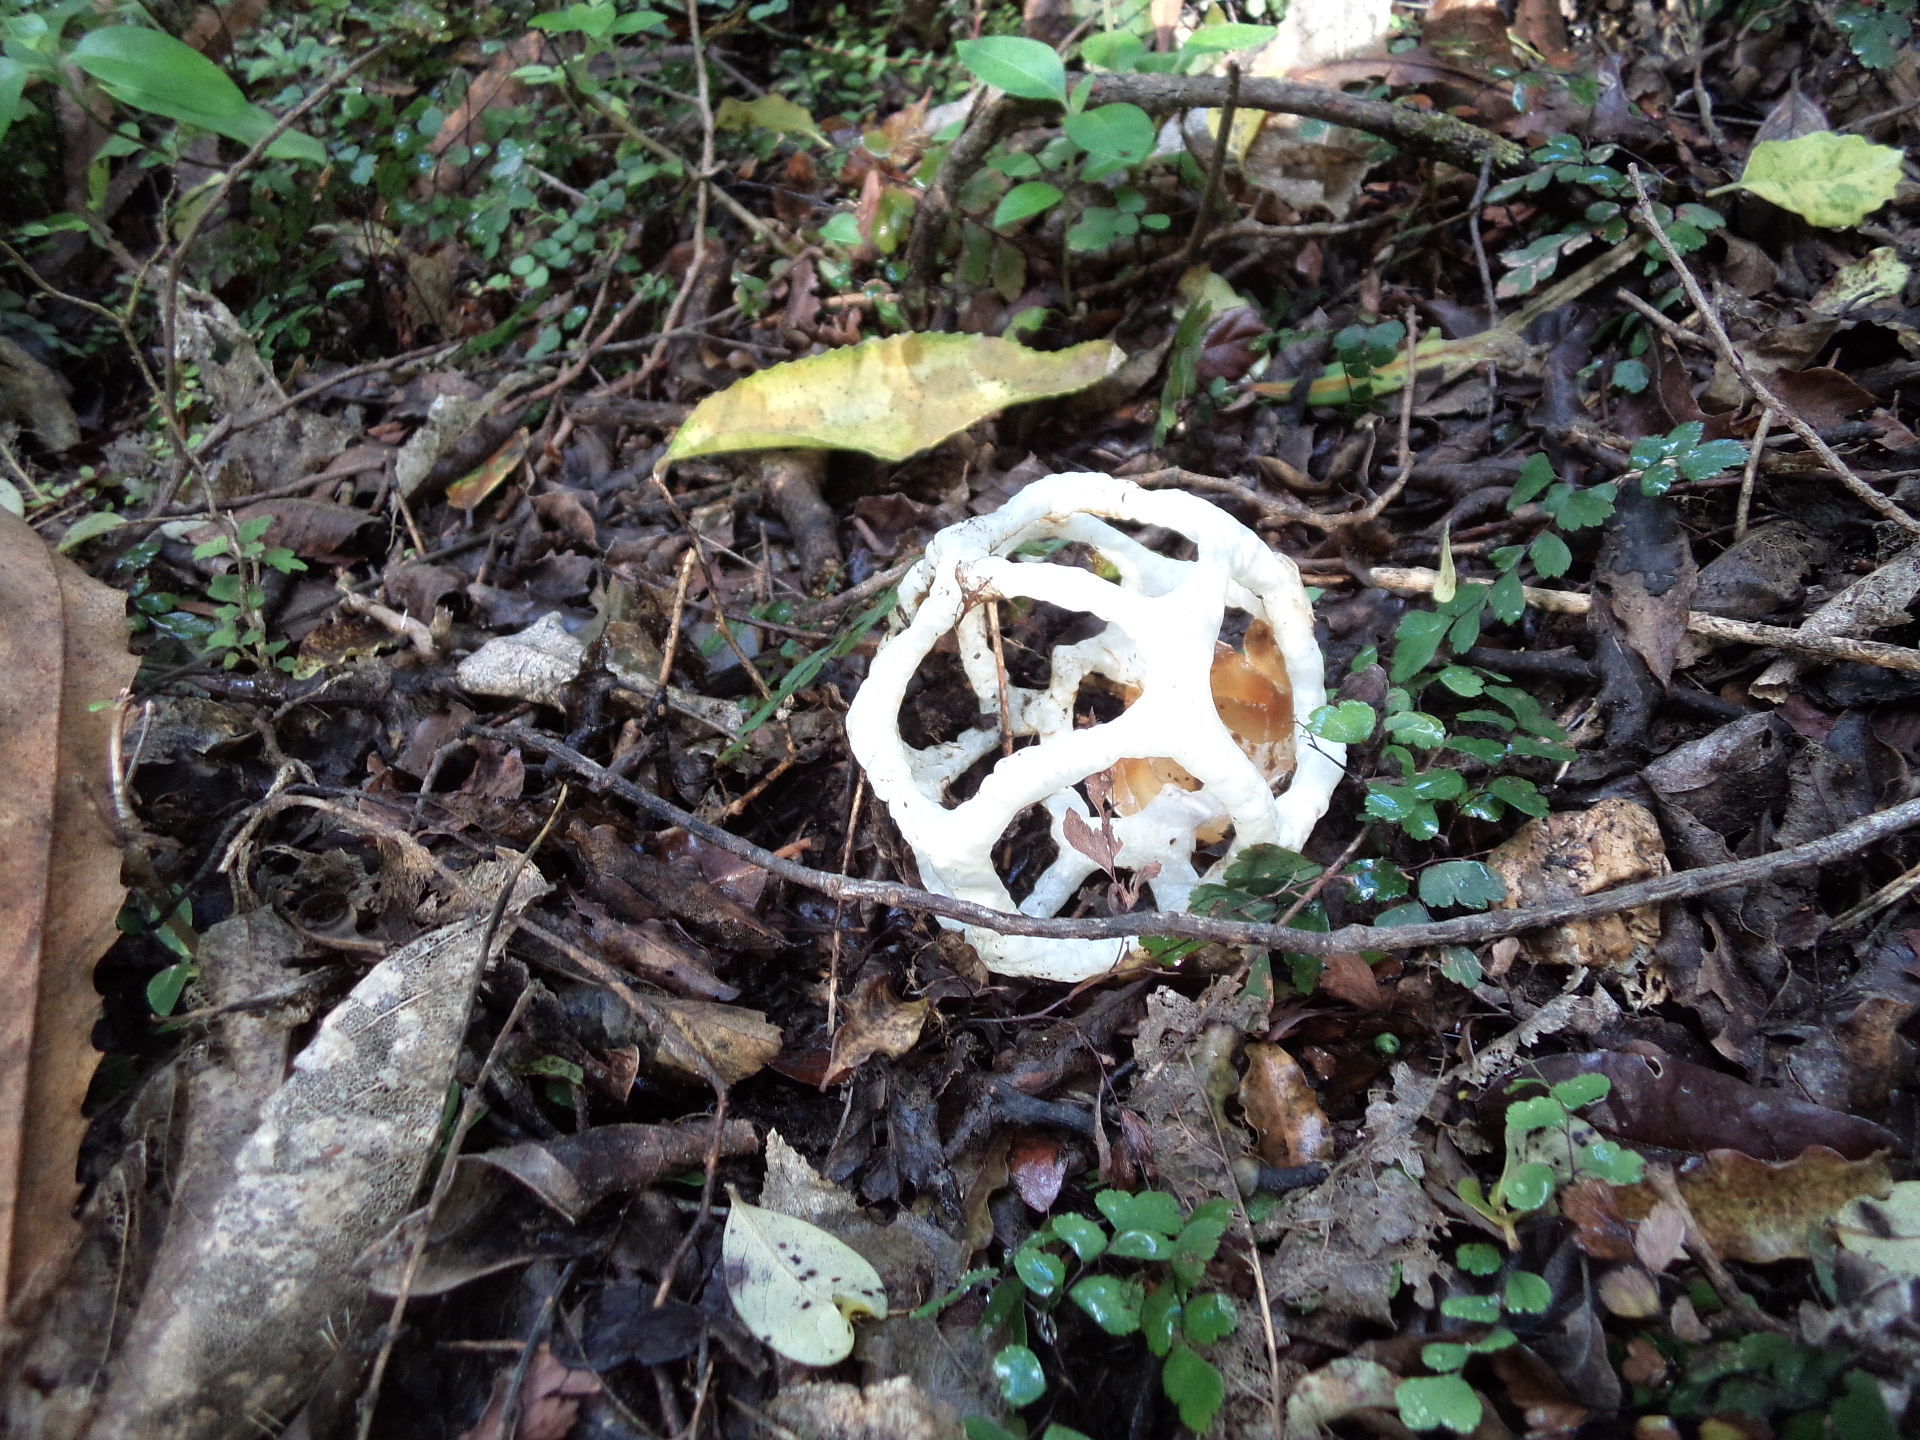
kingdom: Fungi
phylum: Basidiomycota
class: Agaricomycetes
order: Phallales
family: Phallaceae
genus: Ileodictyon
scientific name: Ileodictyon cibarium
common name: Basket fungus
